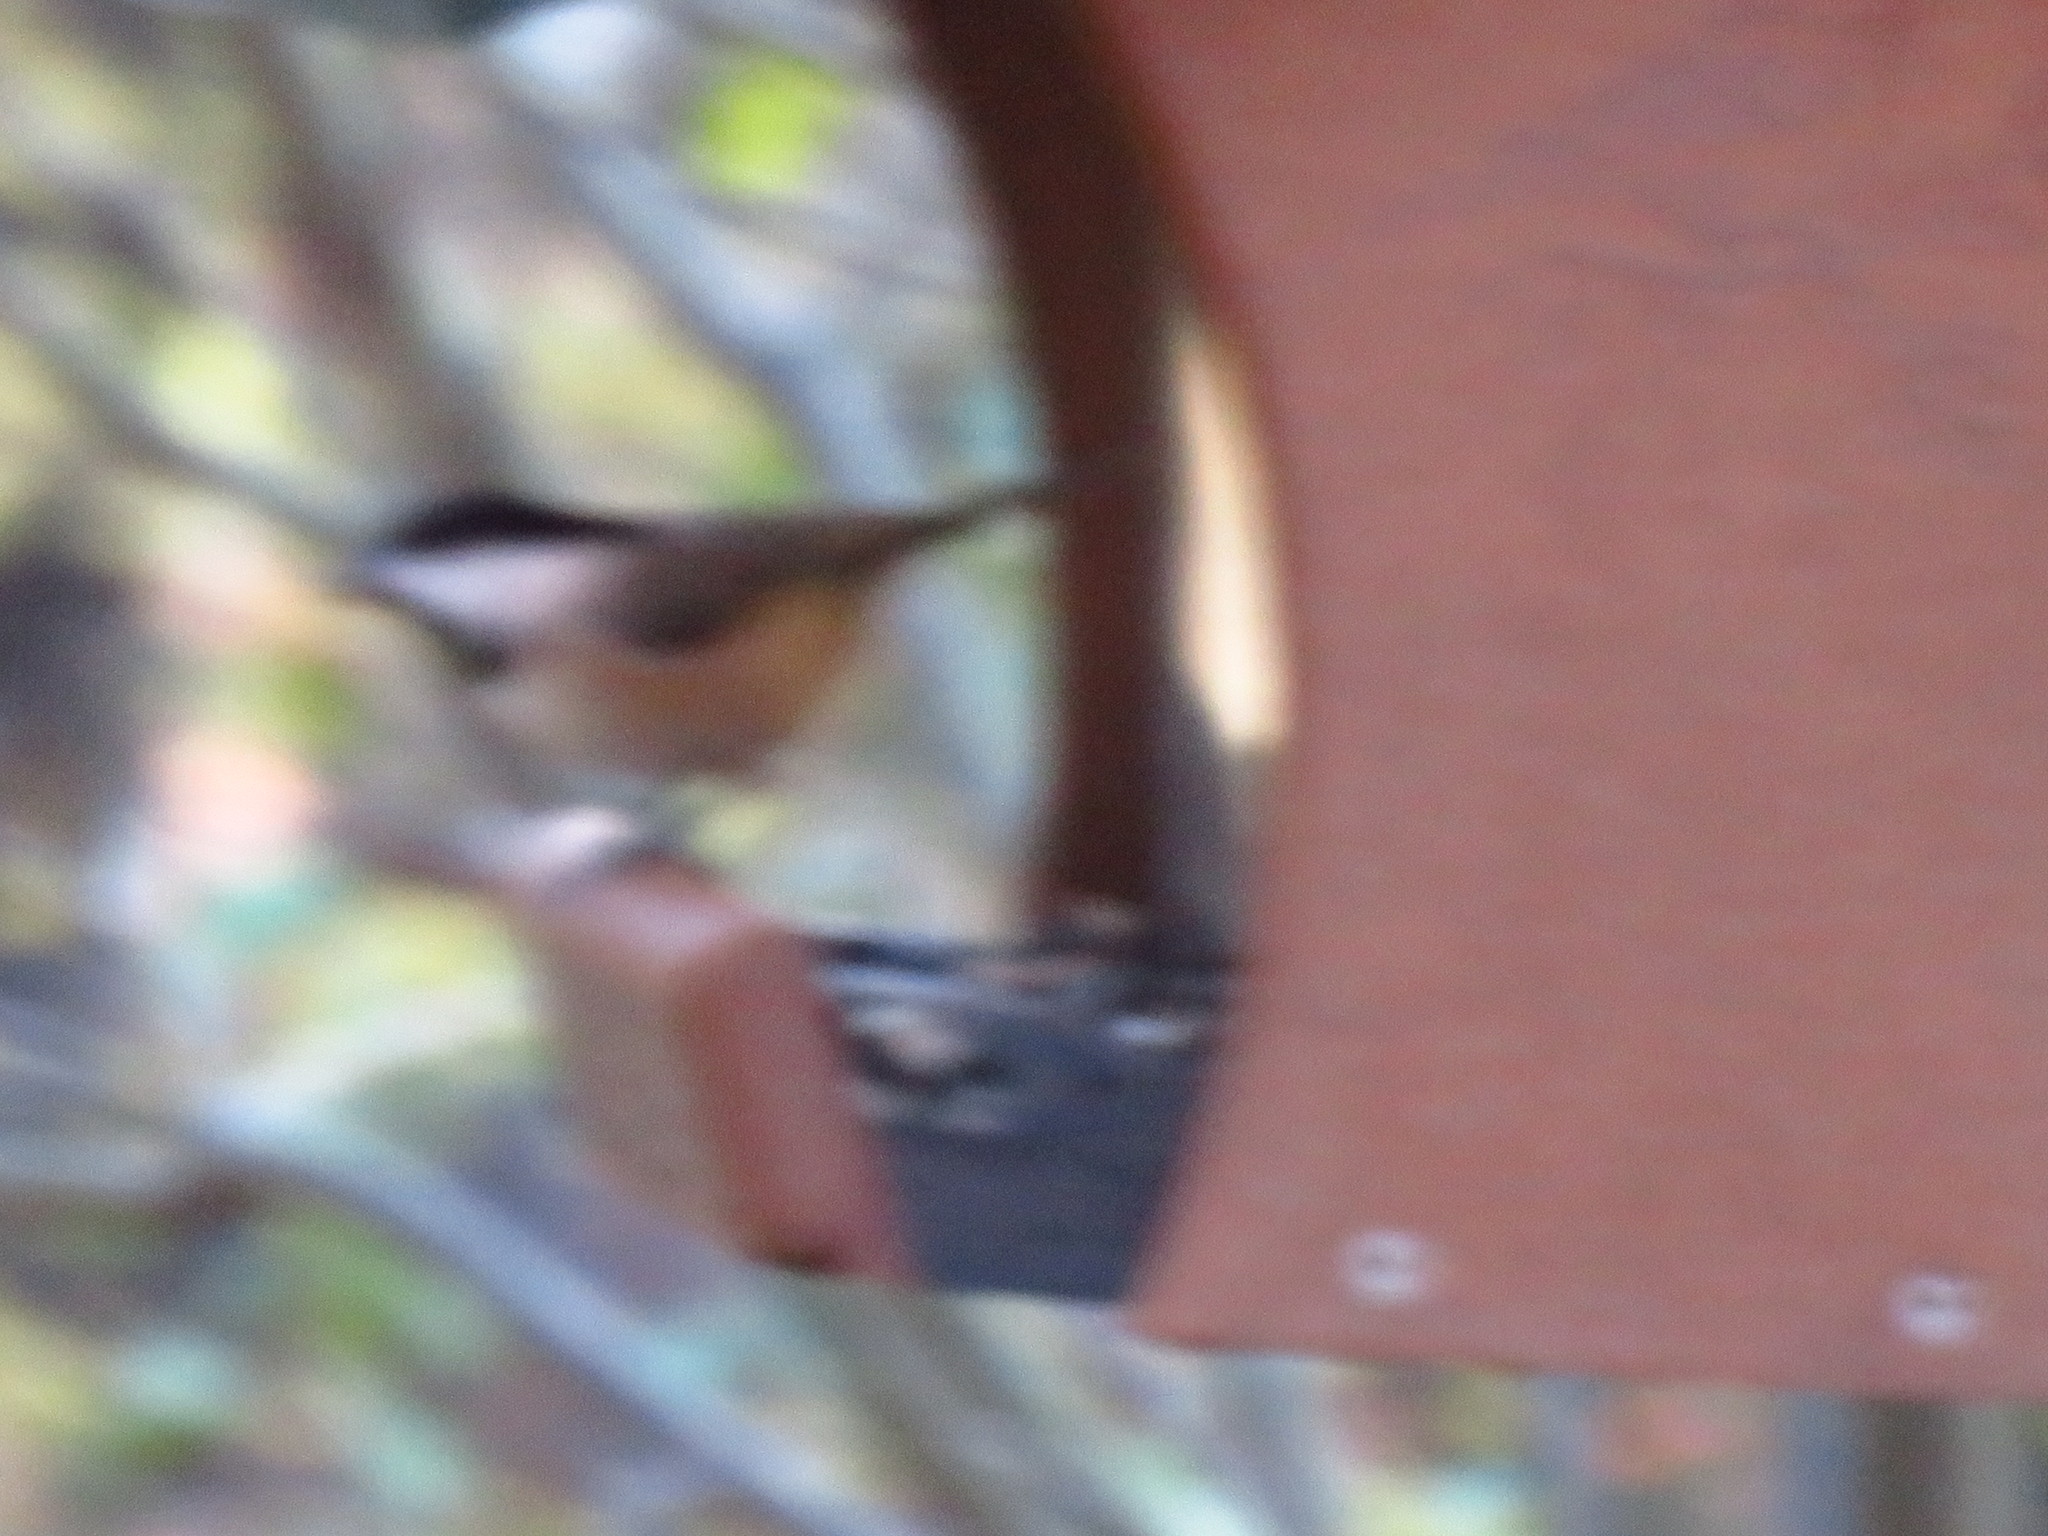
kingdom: Animalia
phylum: Chordata
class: Aves
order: Passeriformes
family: Paridae
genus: Poecile
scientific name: Poecile carolinensis
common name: Carolina chickadee
